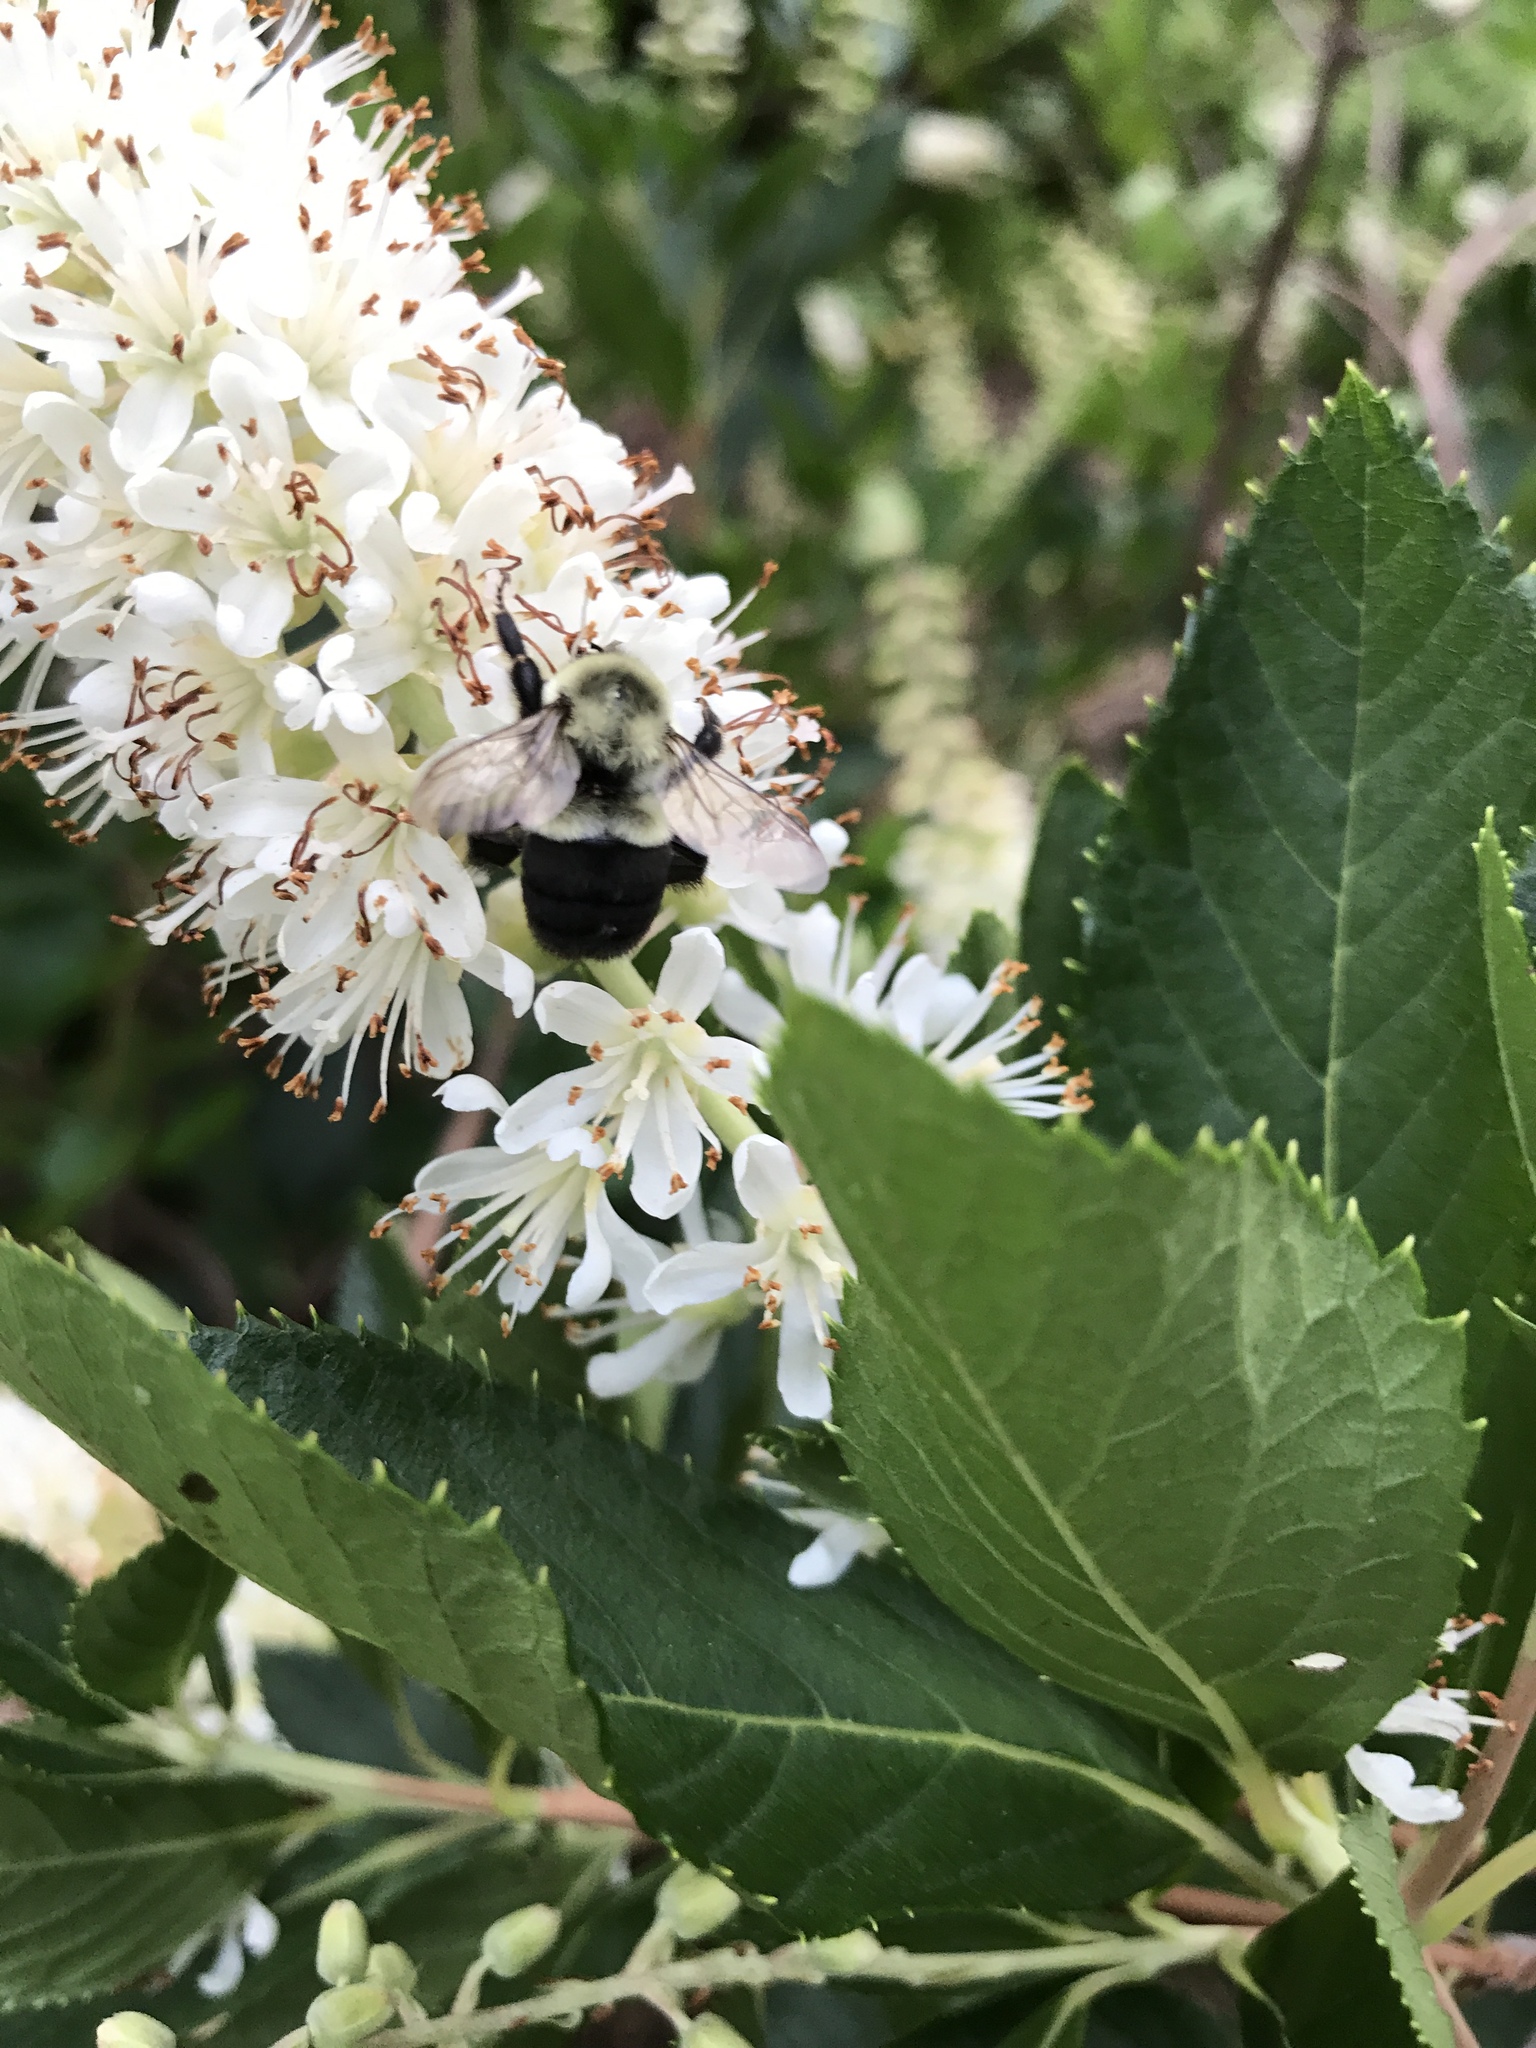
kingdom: Animalia
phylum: Arthropoda
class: Insecta
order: Hymenoptera
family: Apidae
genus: Bombus
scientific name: Bombus impatiens
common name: Common eastern bumble bee
